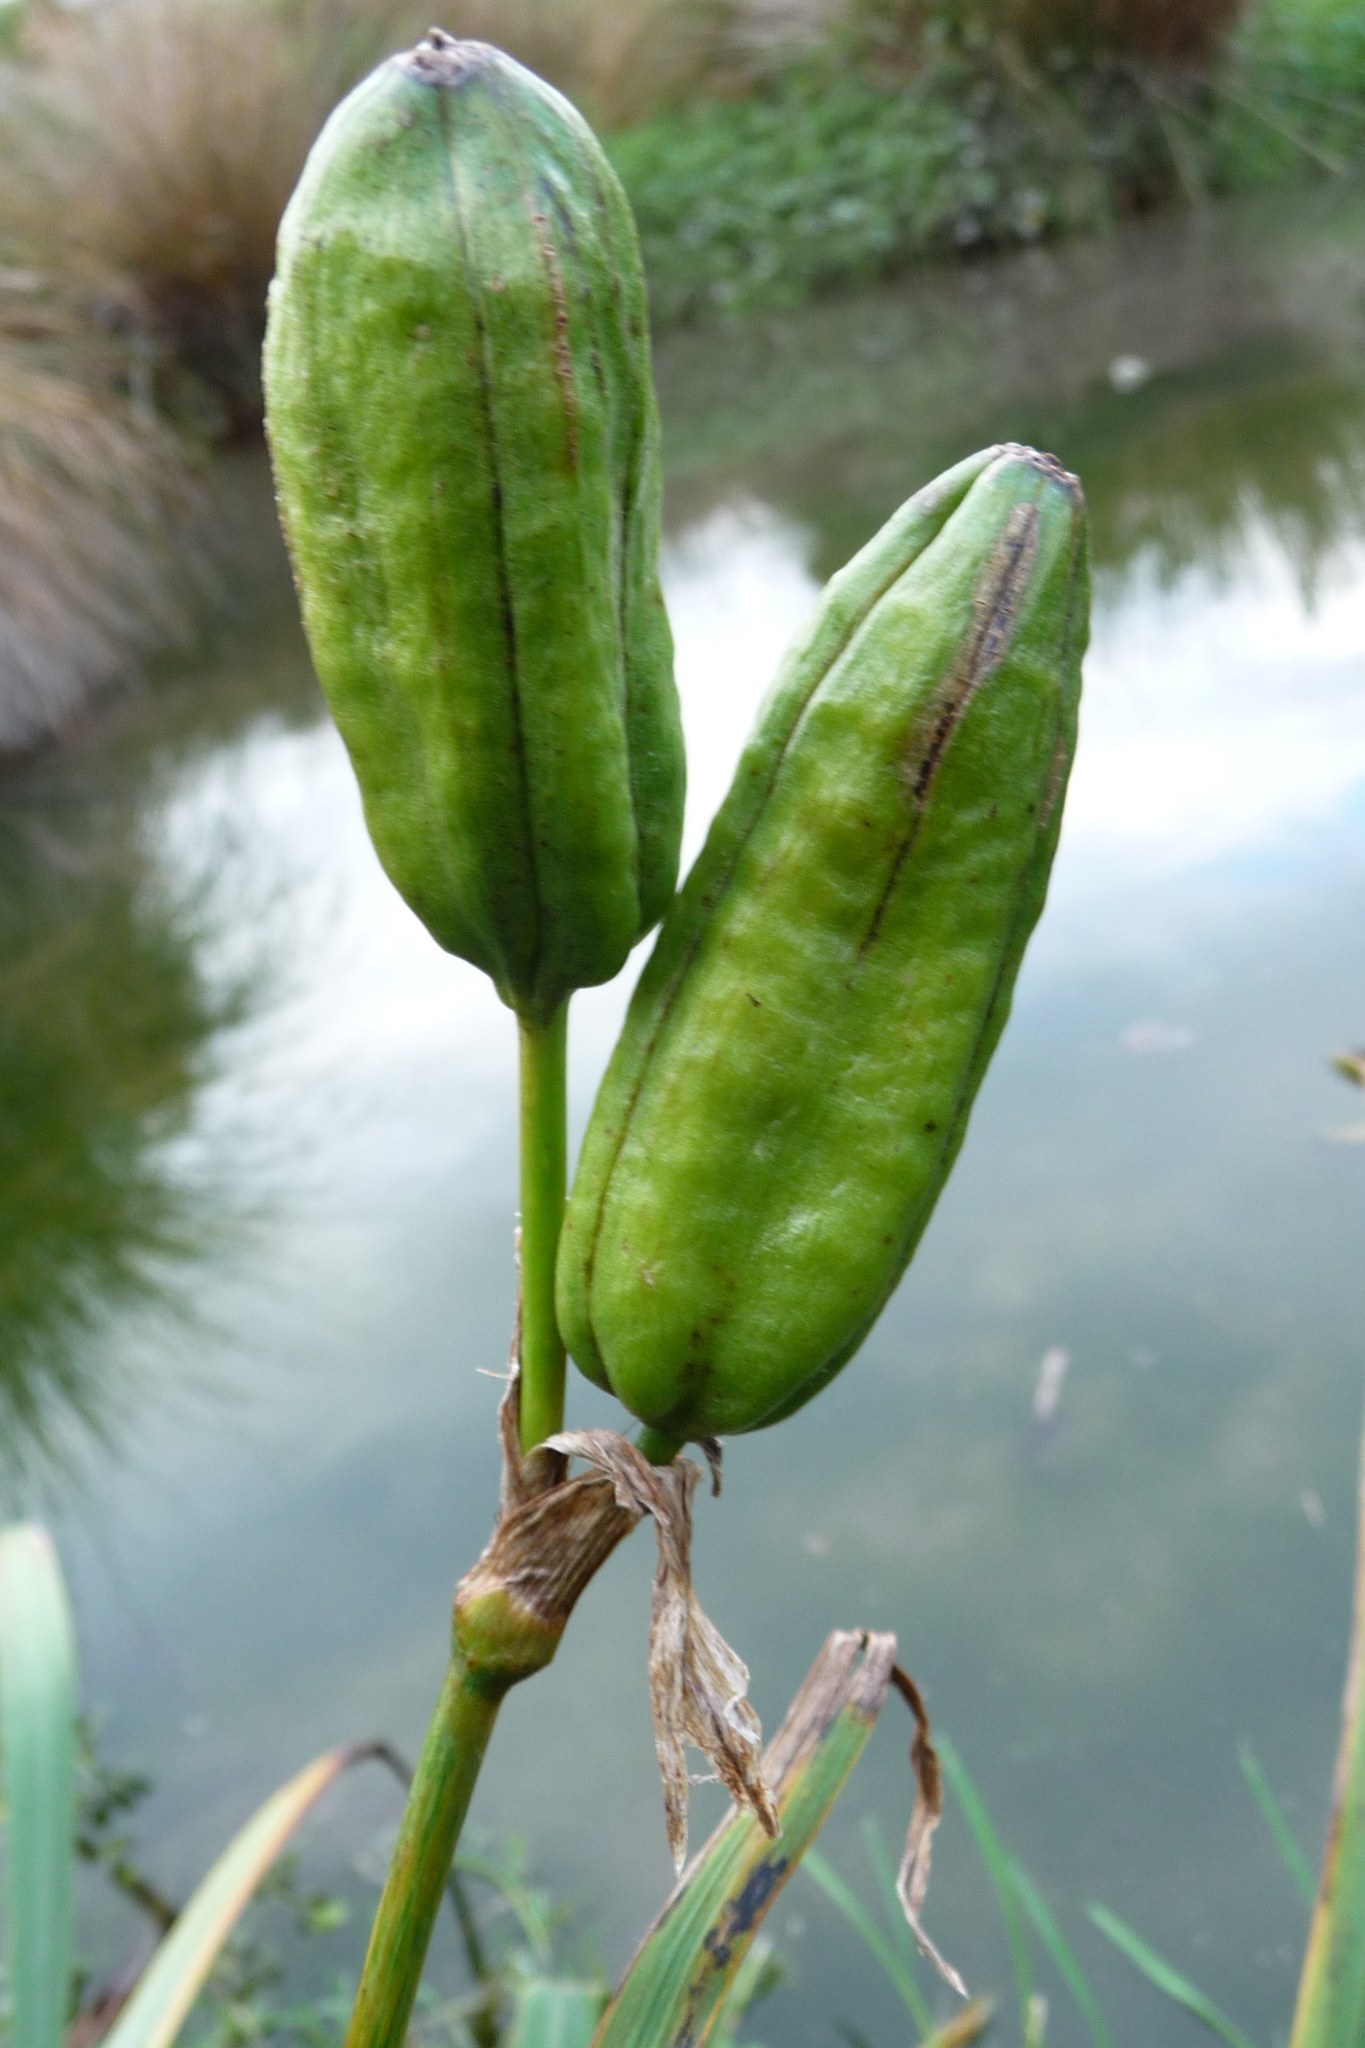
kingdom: Plantae
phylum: Tracheophyta
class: Liliopsida
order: Asparagales
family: Iridaceae
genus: Iris
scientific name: Iris pseudacorus
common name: Yellow flag
